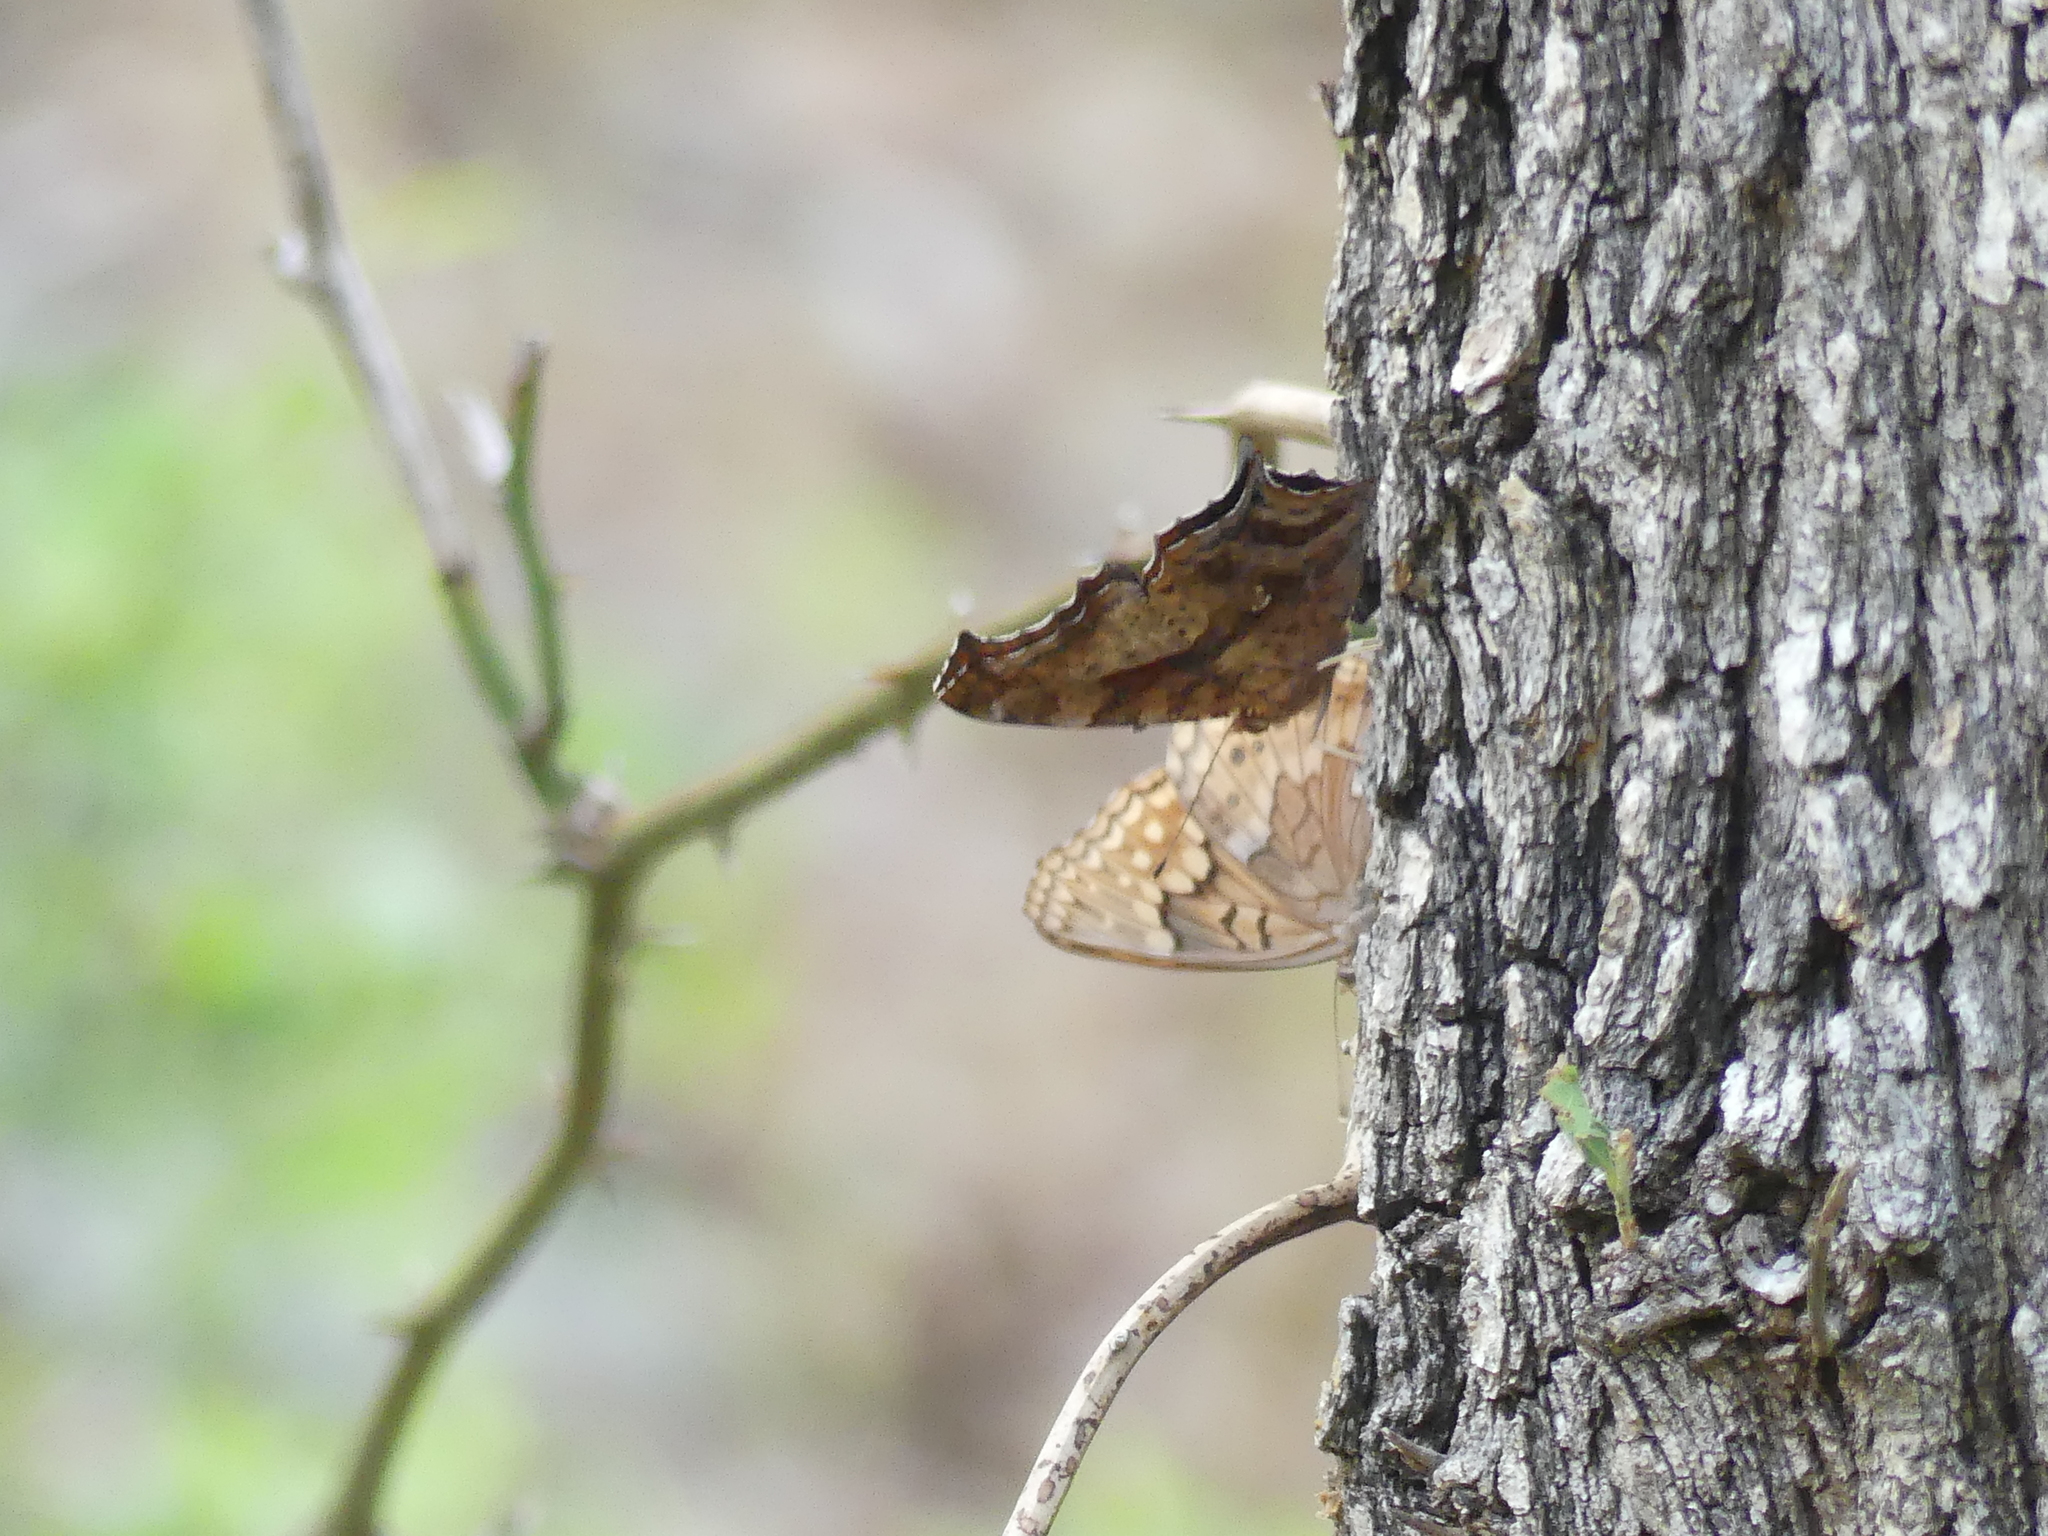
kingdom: Animalia
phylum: Arthropoda
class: Insecta
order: Lepidoptera
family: Nymphalidae
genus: Polygonia
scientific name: Polygonia interrogationis
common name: Question mark
